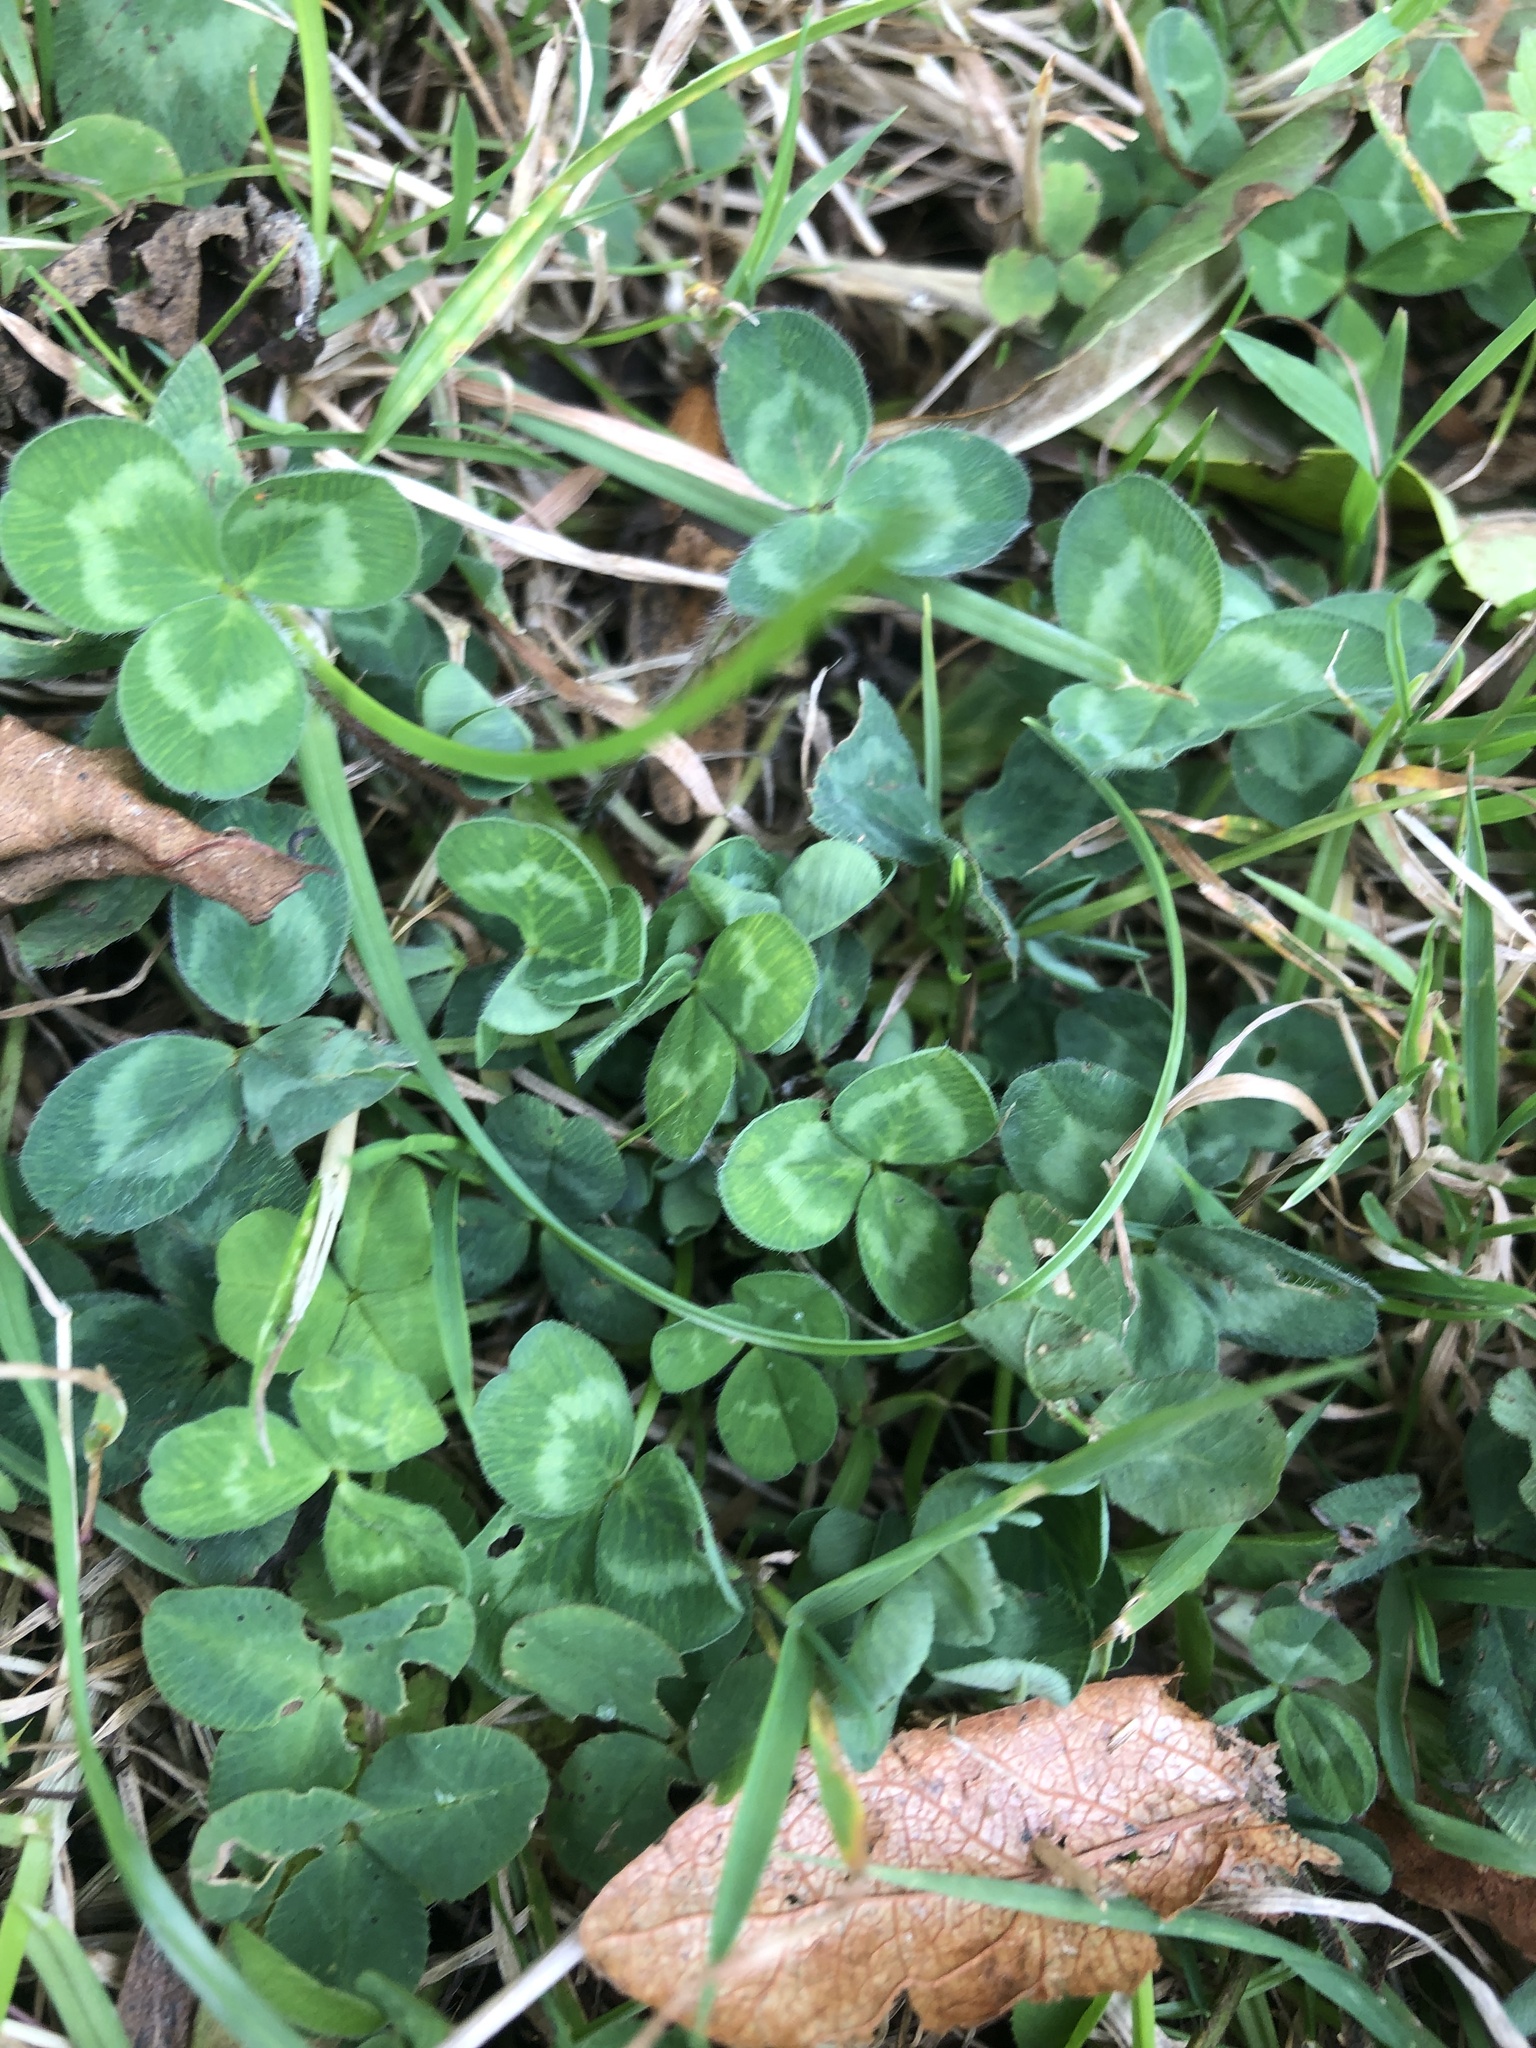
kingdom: Plantae
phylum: Tracheophyta
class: Magnoliopsida
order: Fabales
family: Fabaceae
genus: Trifolium
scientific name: Trifolium pratense
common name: Red clover
